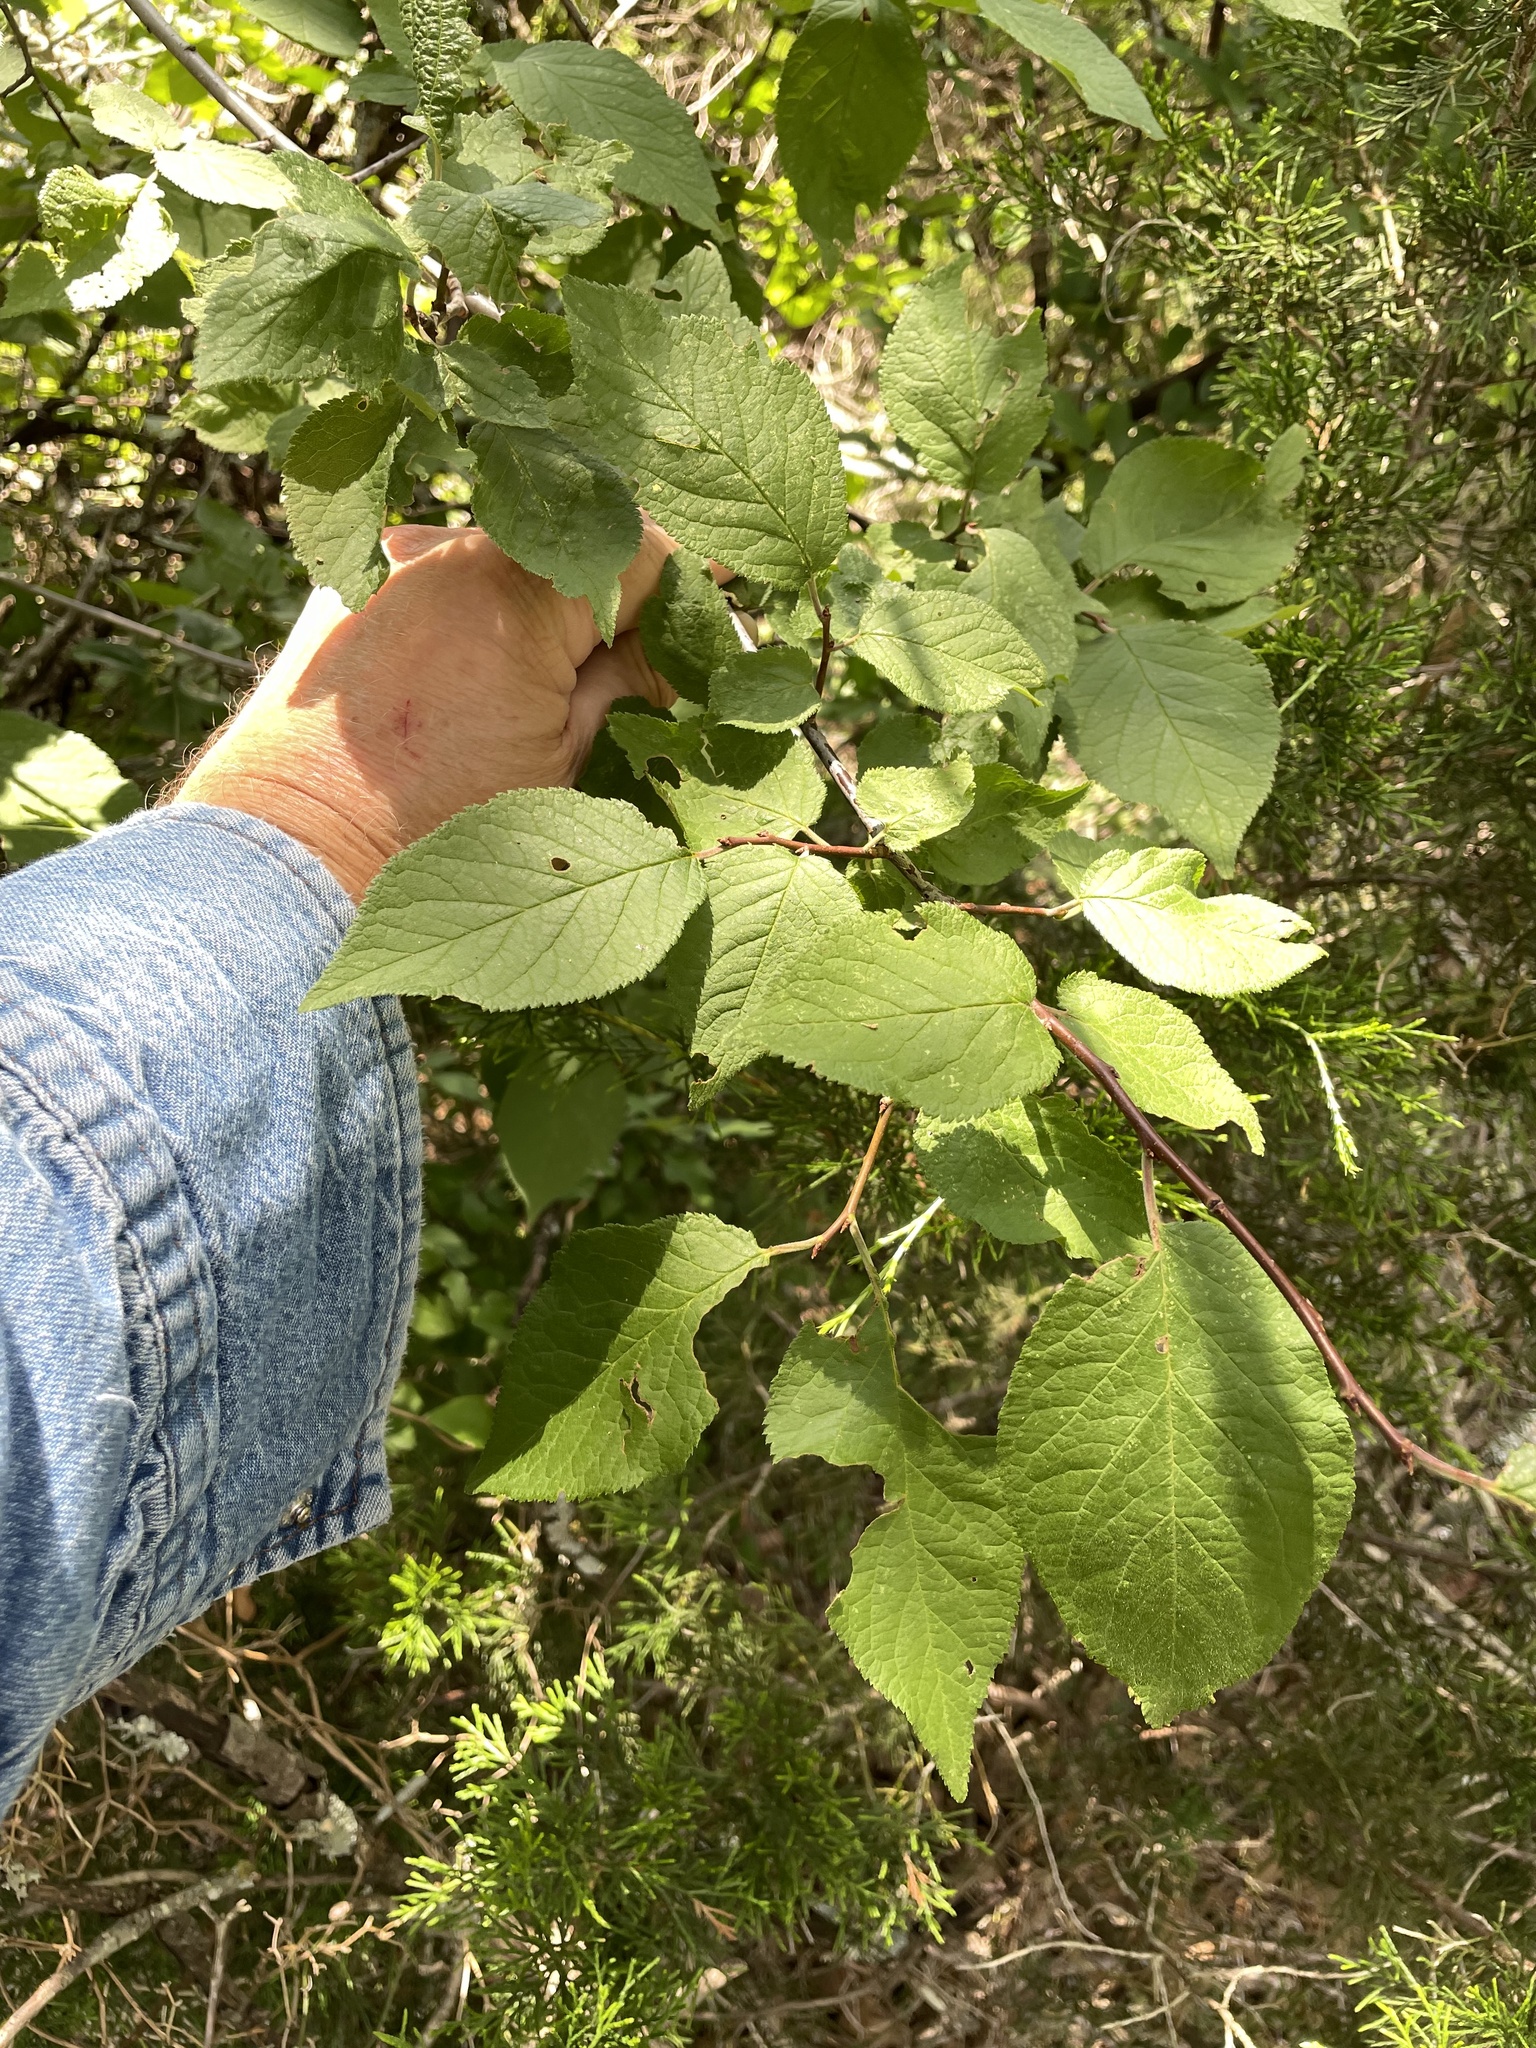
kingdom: Plantae
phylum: Tracheophyta
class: Magnoliopsida
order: Rosales
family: Rosaceae
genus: Prunus
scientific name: Prunus mexicana
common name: Mexican plum
